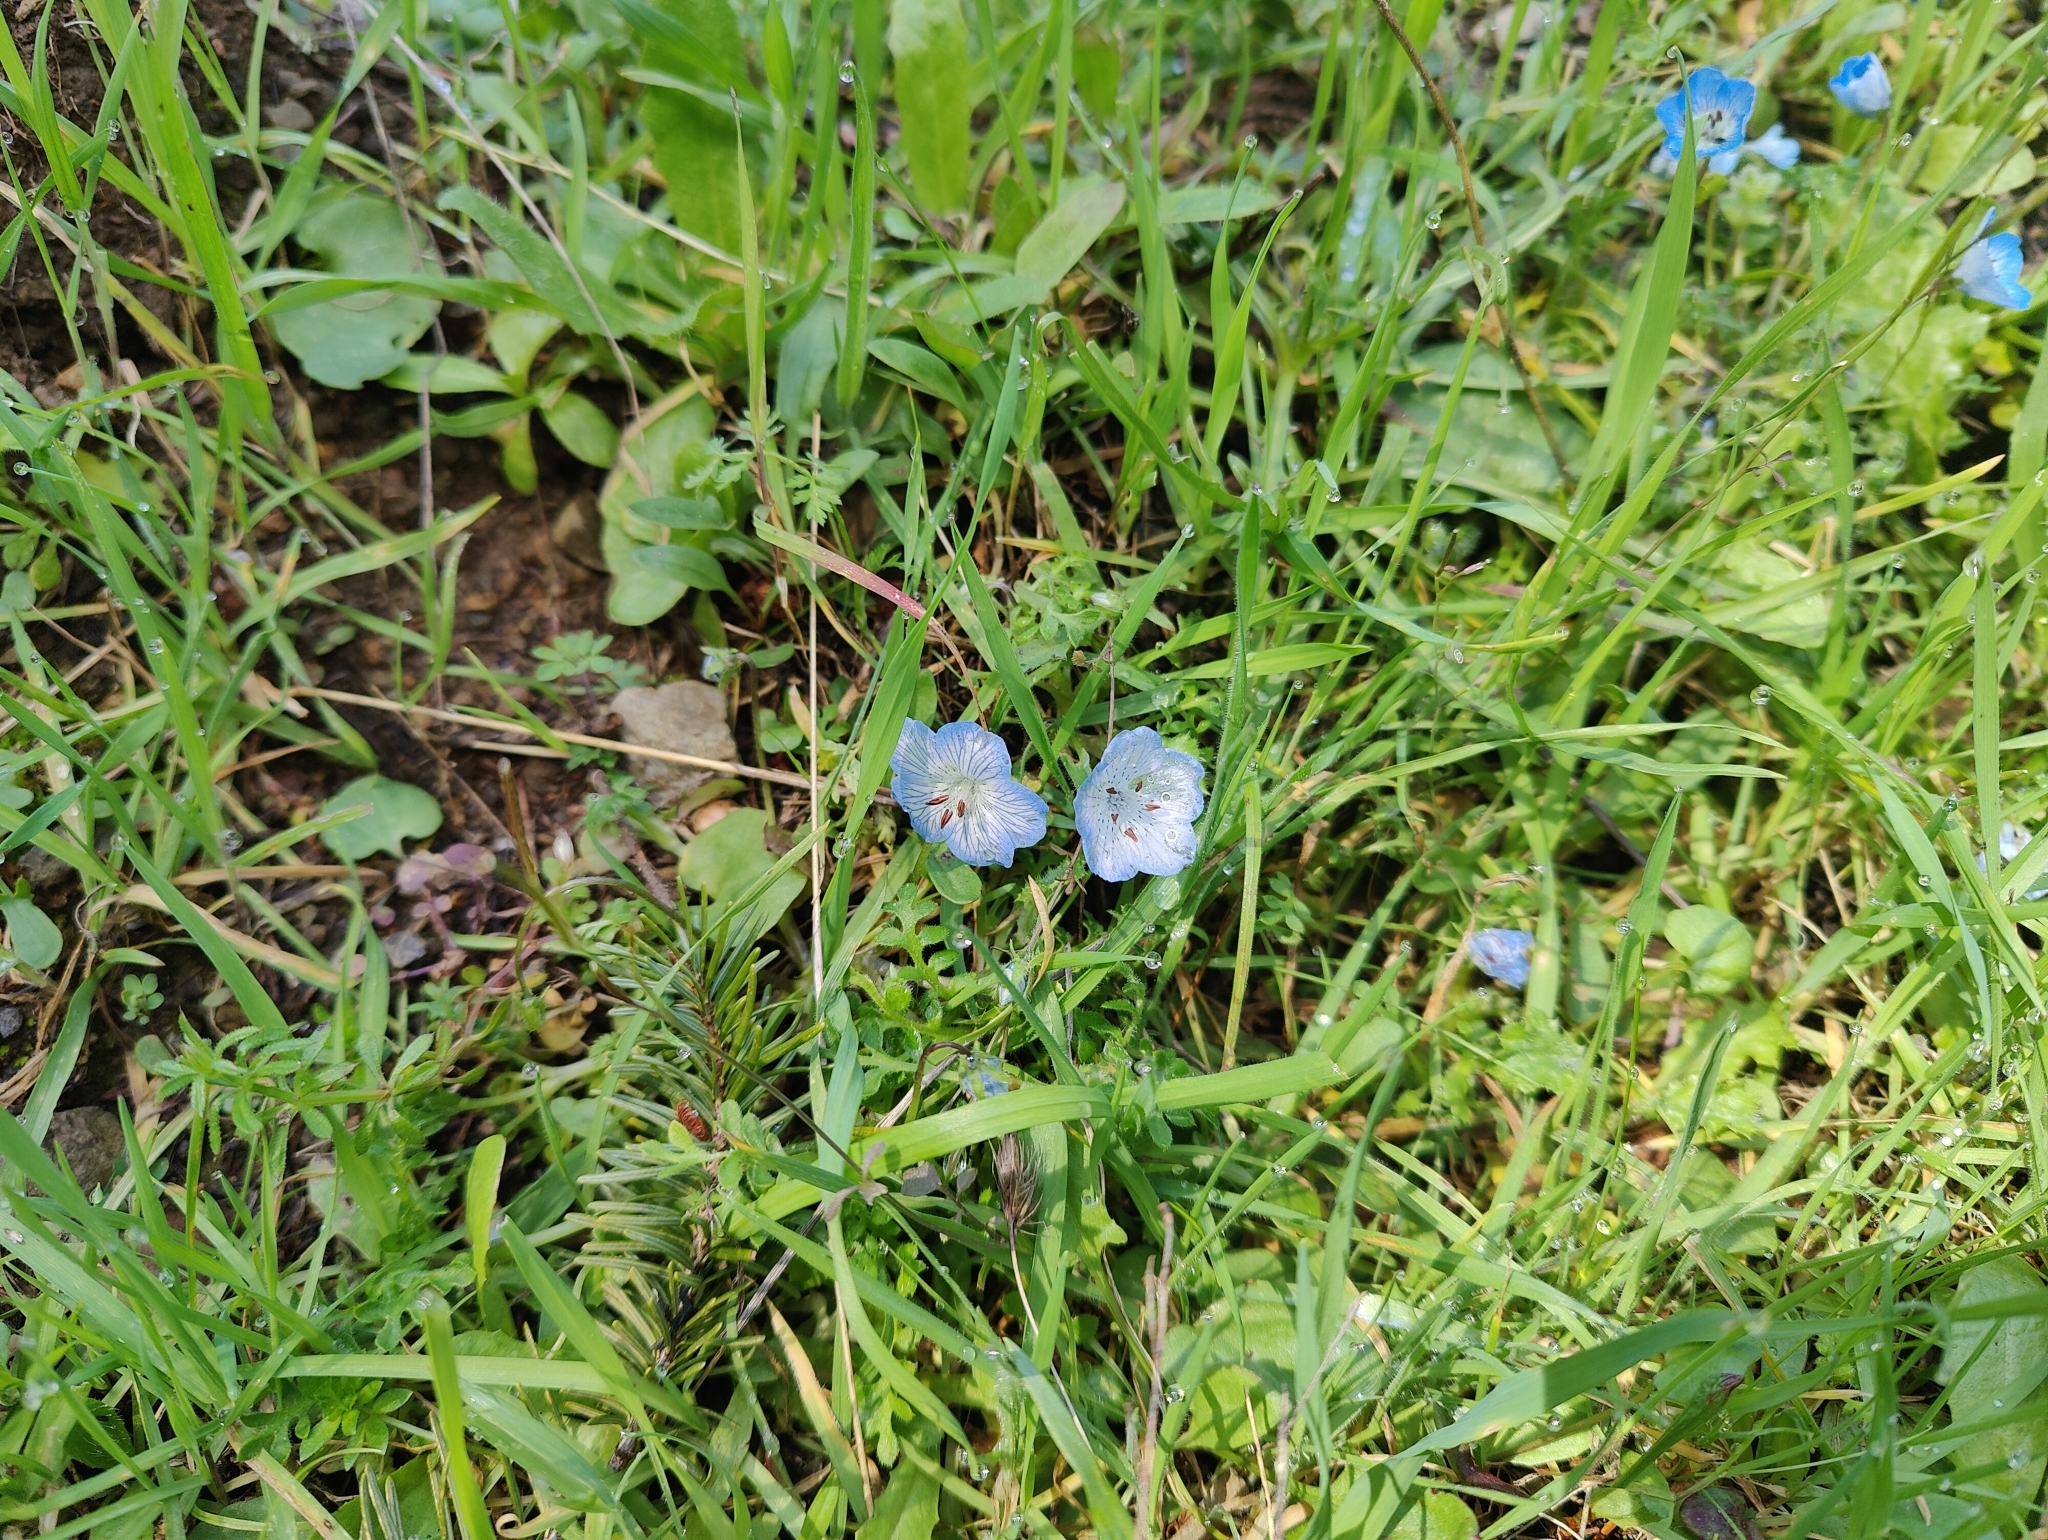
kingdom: Plantae
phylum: Tracheophyta
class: Magnoliopsida
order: Boraginales
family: Hydrophyllaceae
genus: Nemophila
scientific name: Nemophila menziesii
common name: Baby's-blue-eyes
